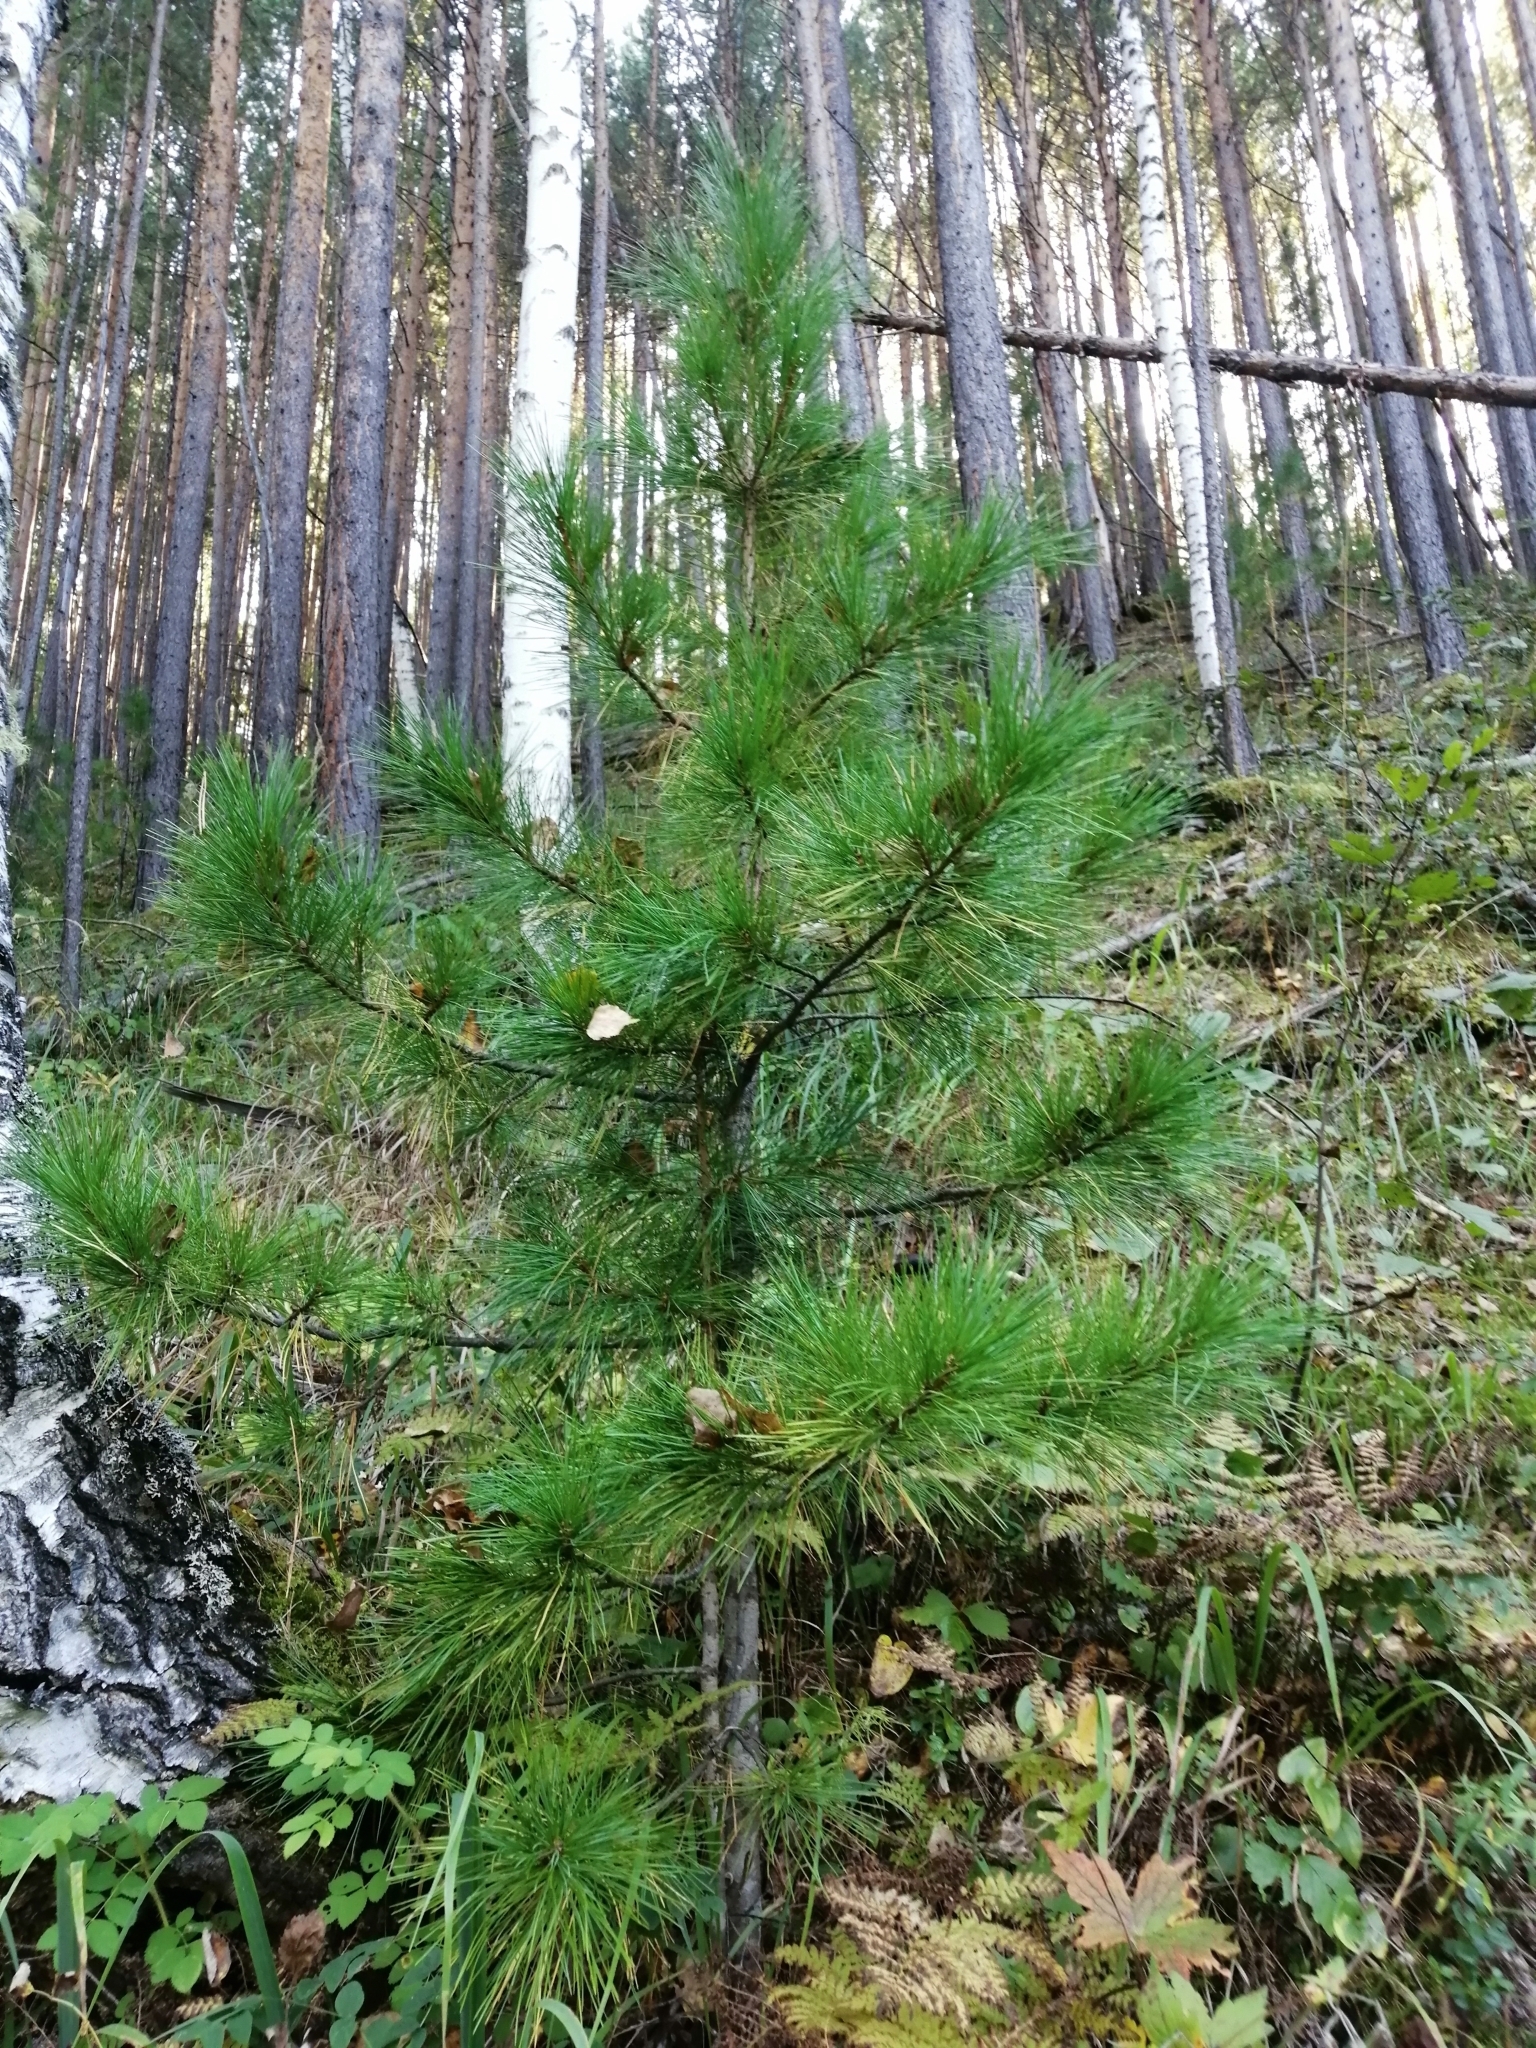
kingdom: Plantae
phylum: Tracheophyta
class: Pinopsida
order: Pinales
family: Pinaceae
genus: Pinus
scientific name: Pinus sibirica
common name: Siberian pine
